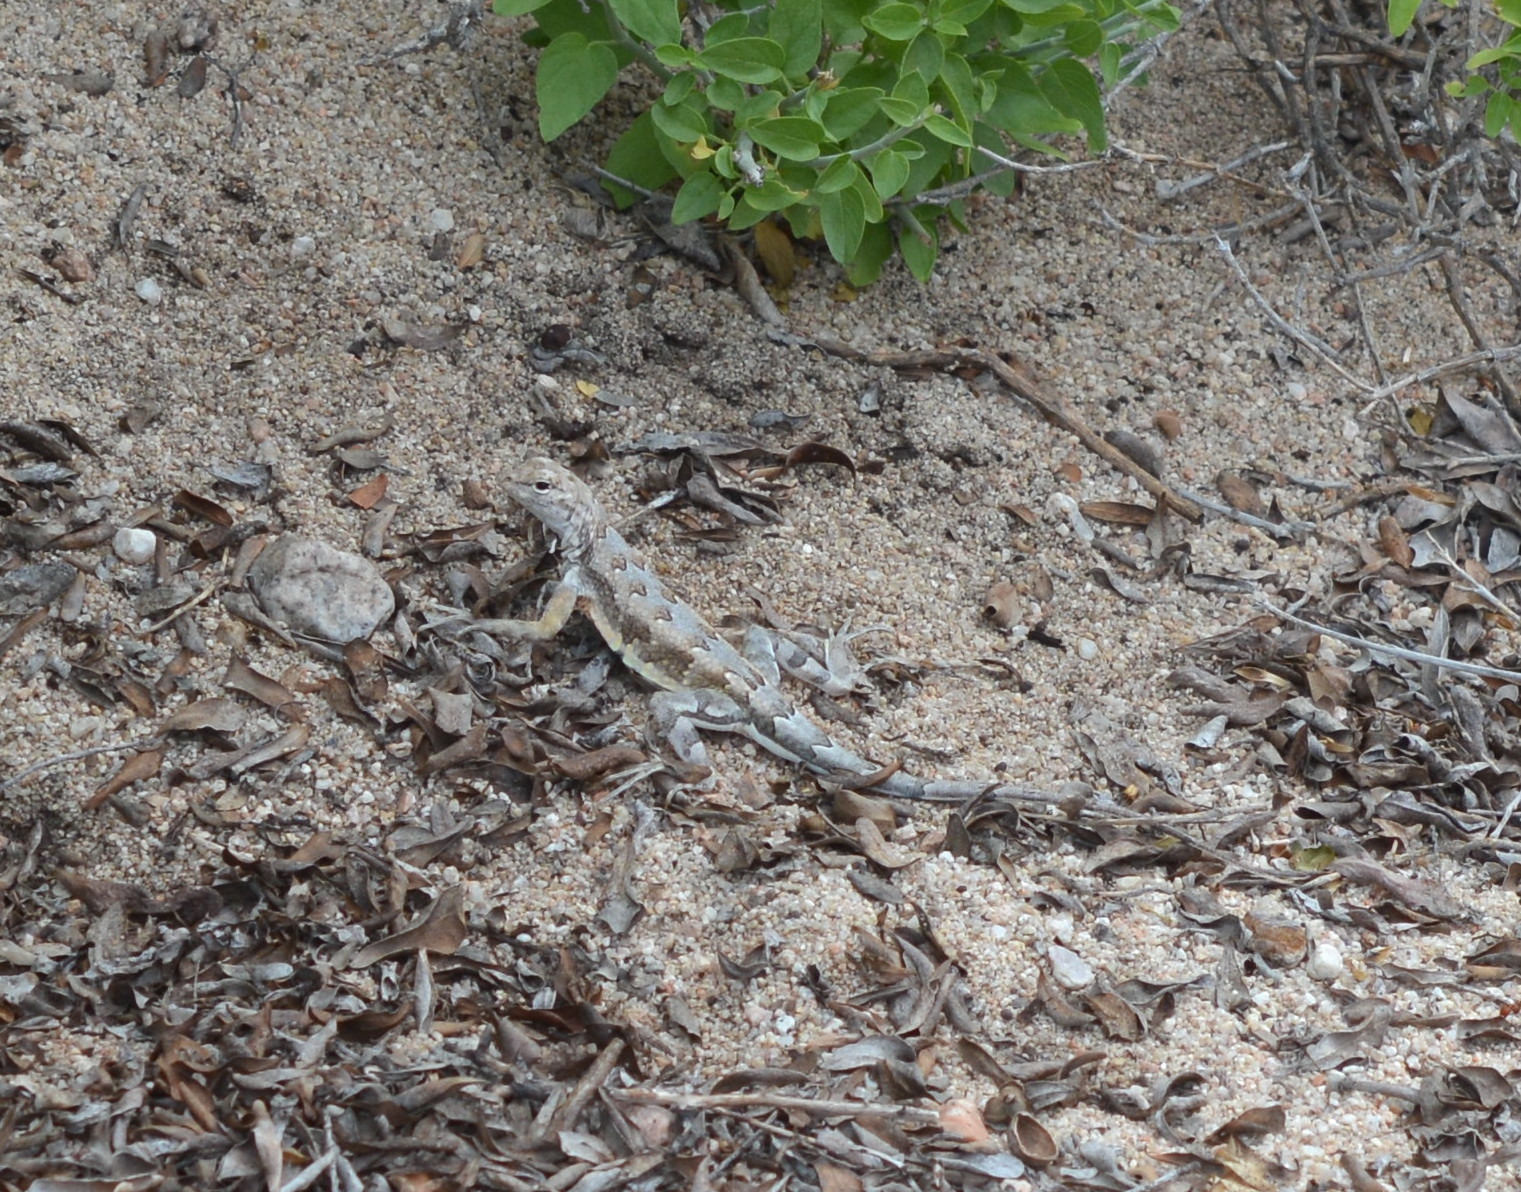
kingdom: Animalia
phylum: Chordata
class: Squamata
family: Phrynosomatidae
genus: Callisaurus
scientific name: Callisaurus draconoides
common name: Zebra-tailed lizard
